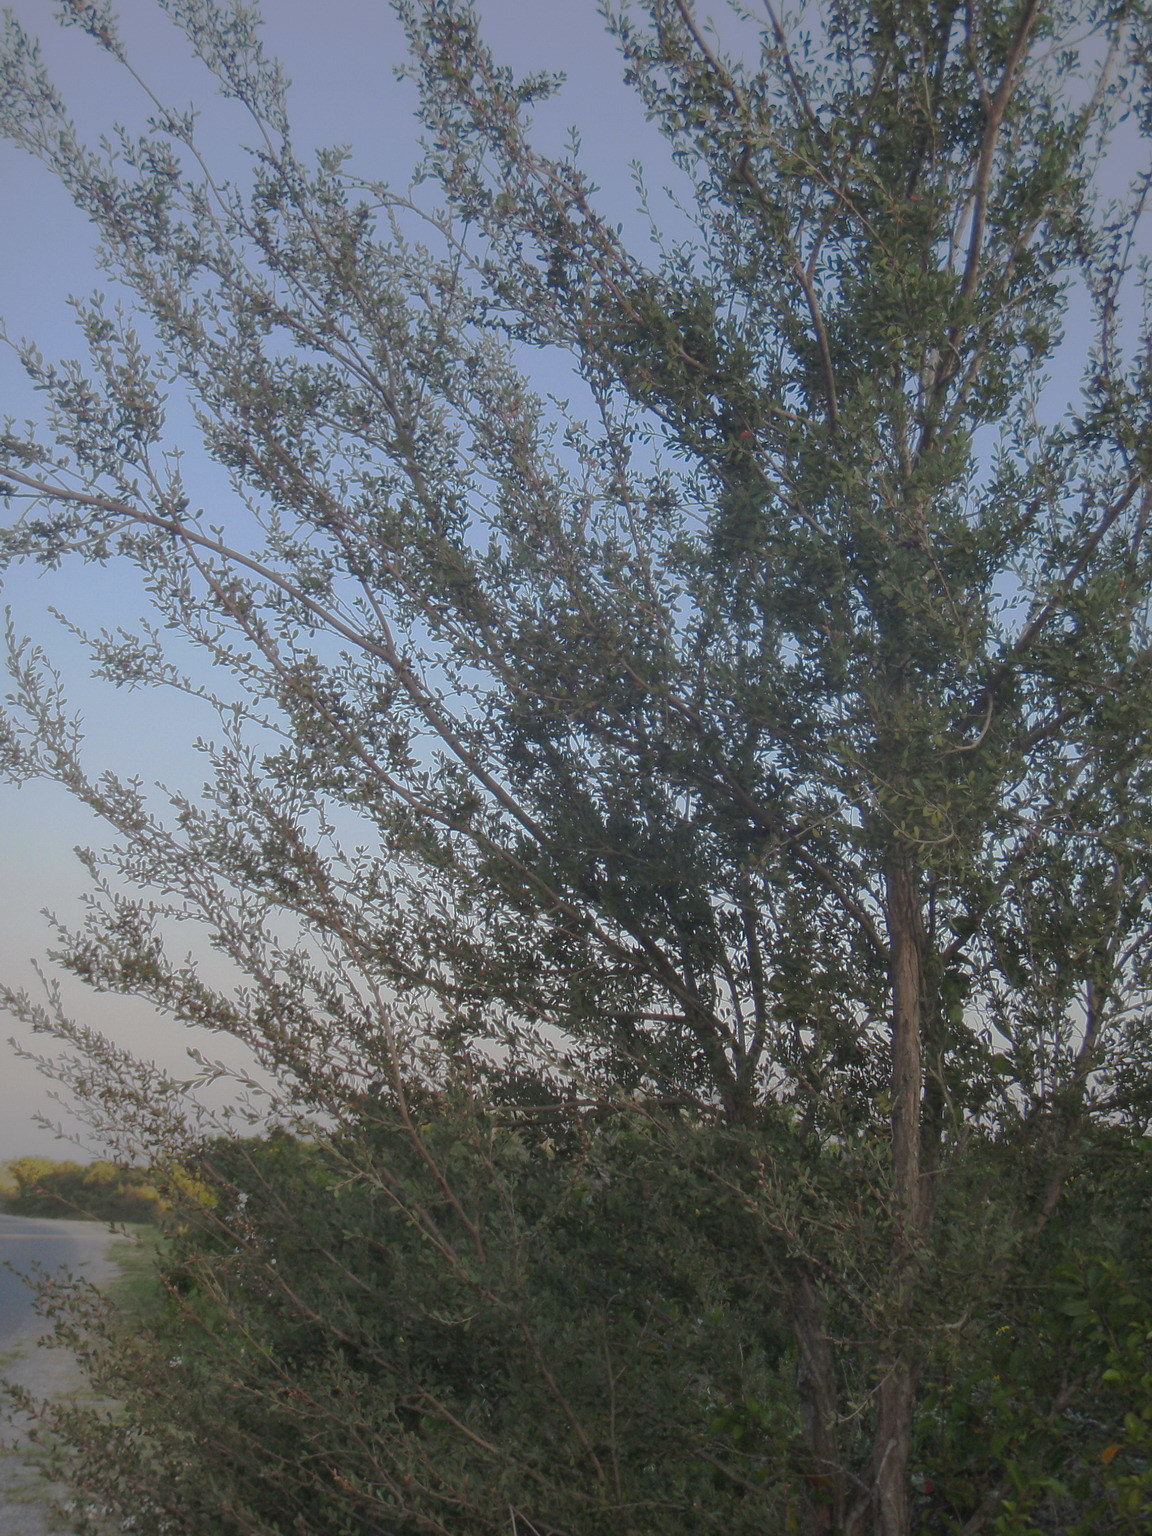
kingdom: Plantae
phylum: Tracheophyta
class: Magnoliopsida
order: Myrtales
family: Myrtaceae
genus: Leptospermum
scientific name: Leptospermum laevigatum
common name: Australian teatree
